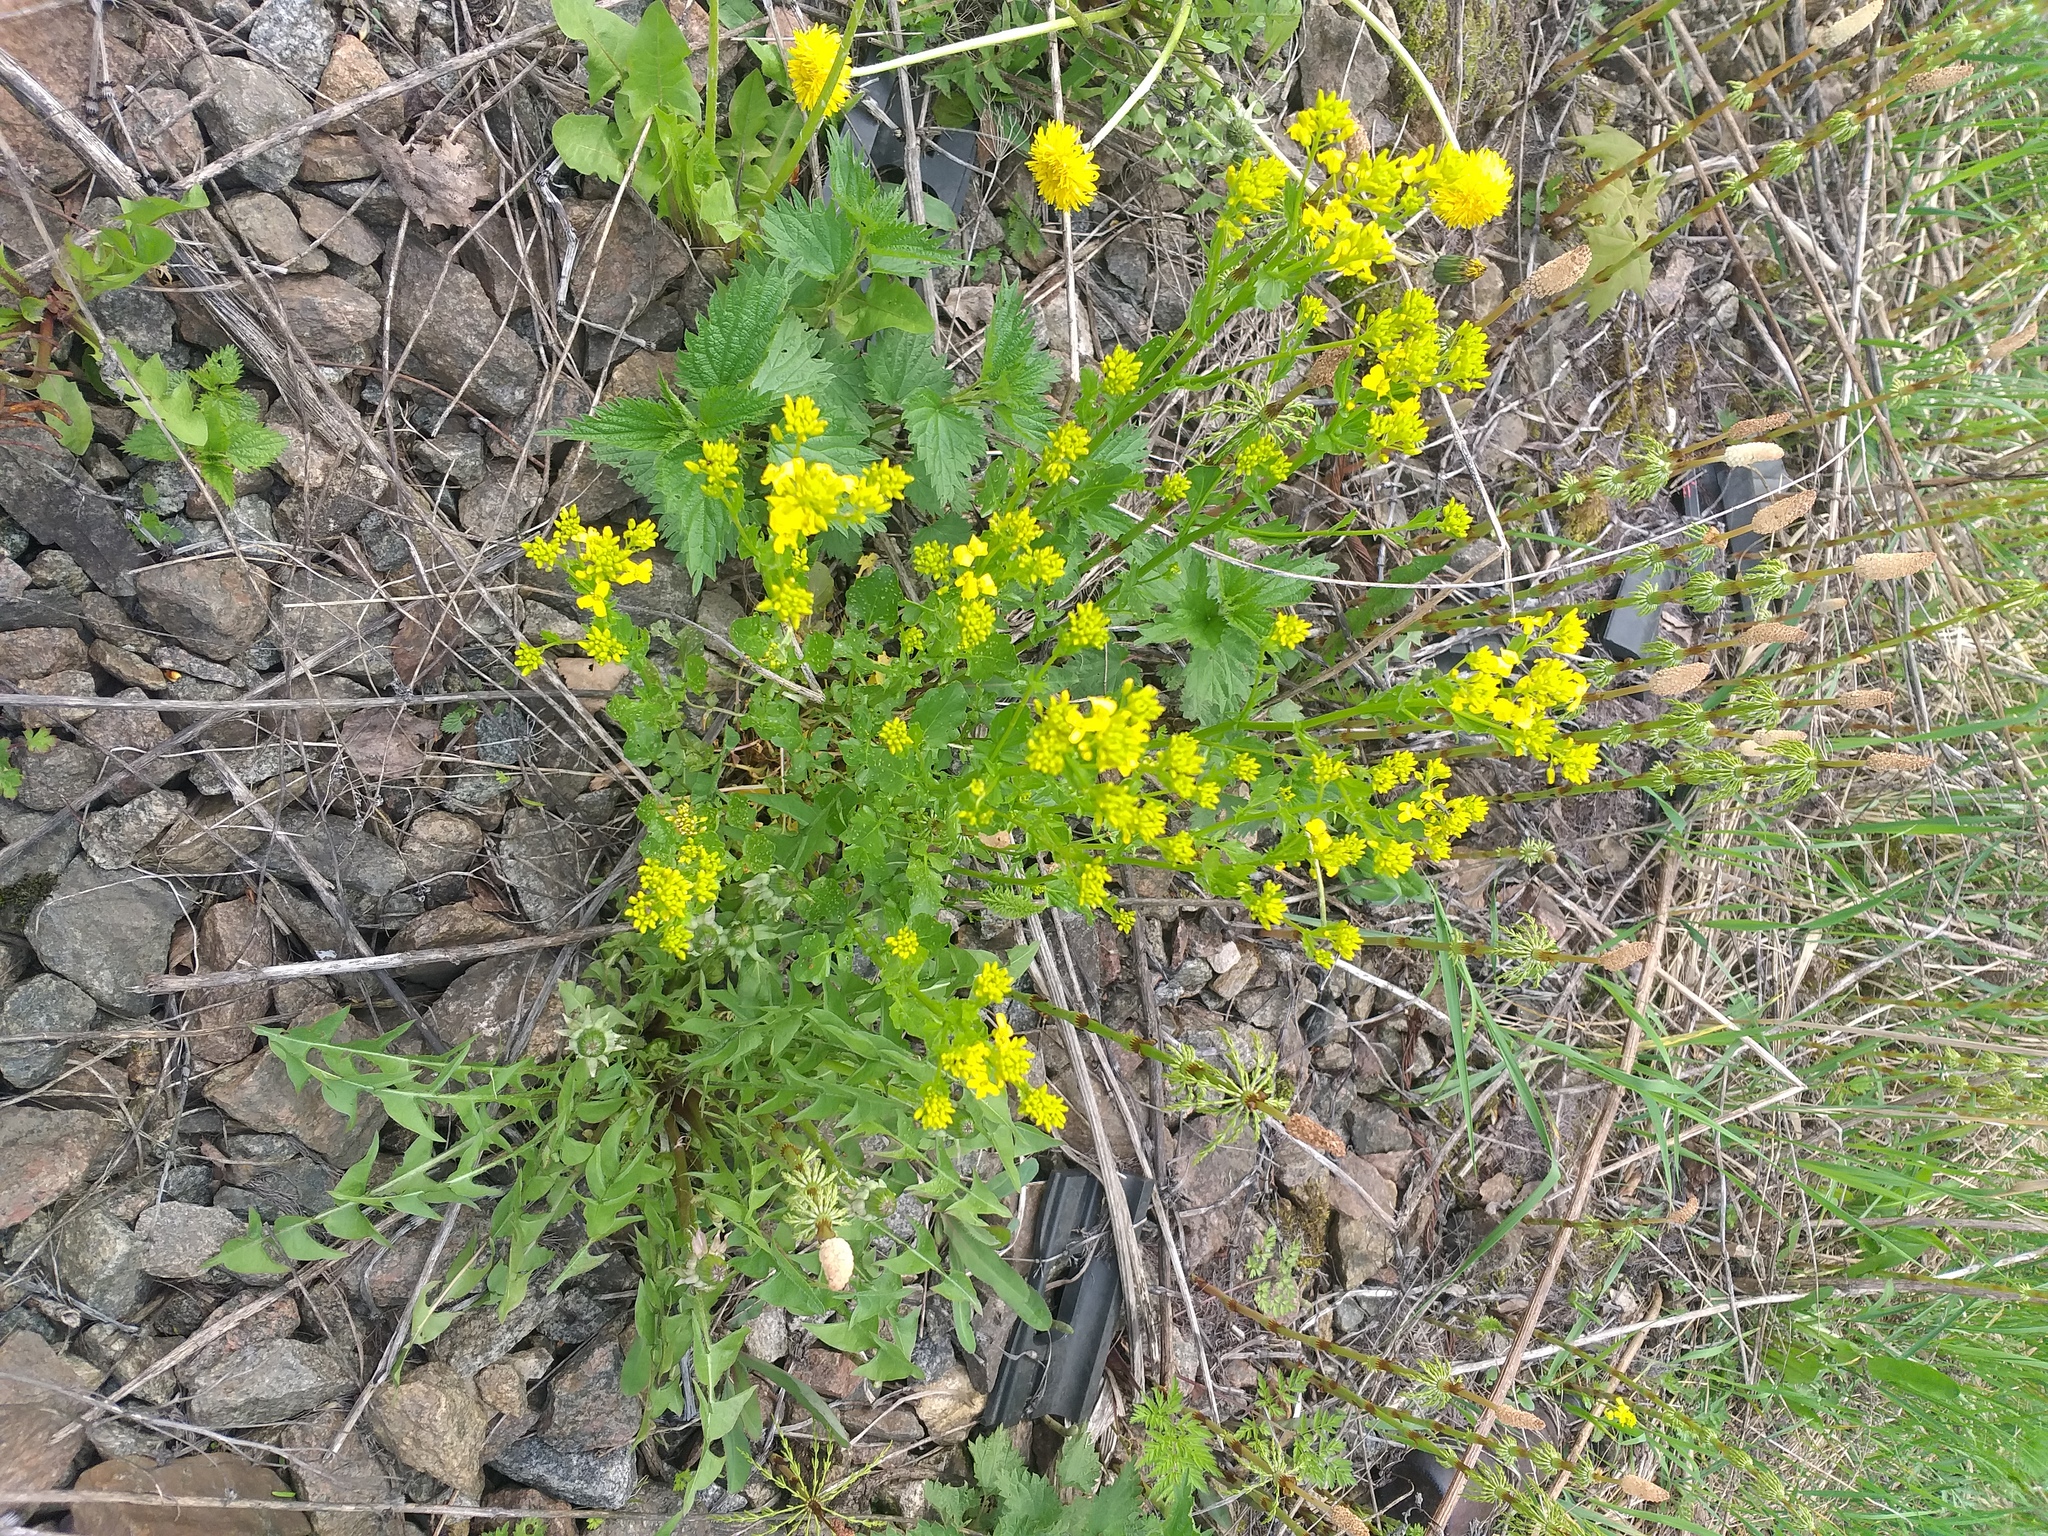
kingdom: Plantae
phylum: Tracheophyta
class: Magnoliopsida
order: Brassicales
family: Brassicaceae
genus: Barbarea
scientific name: Barbarea vulgaris
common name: Cressy-greens
